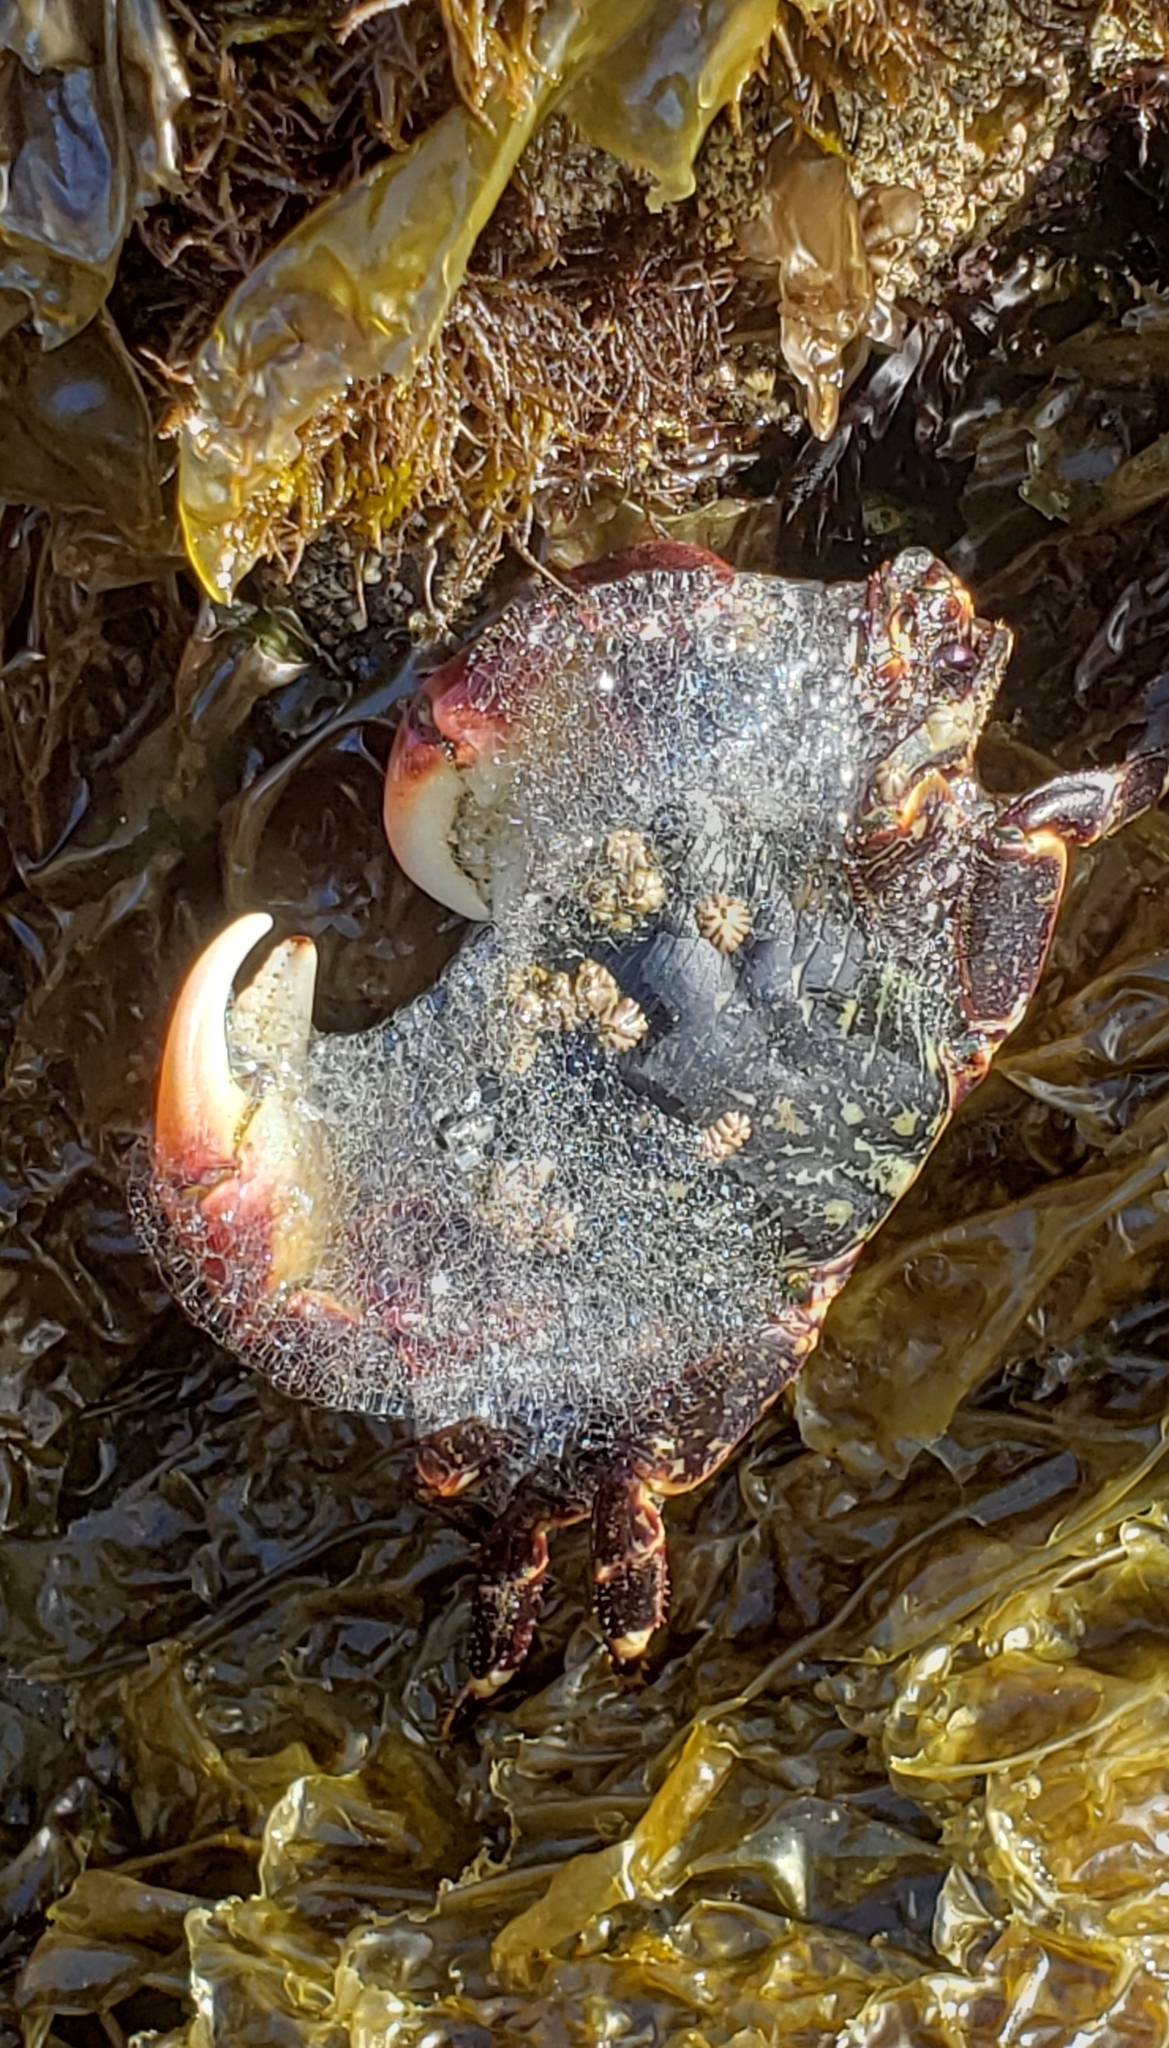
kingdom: Animalia
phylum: Arthropoda
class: Malacostraca
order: Decapoda
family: Grapsidae
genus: Pachygrapsus
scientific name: Pachygrapsus crassipes
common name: Striped shore crab
